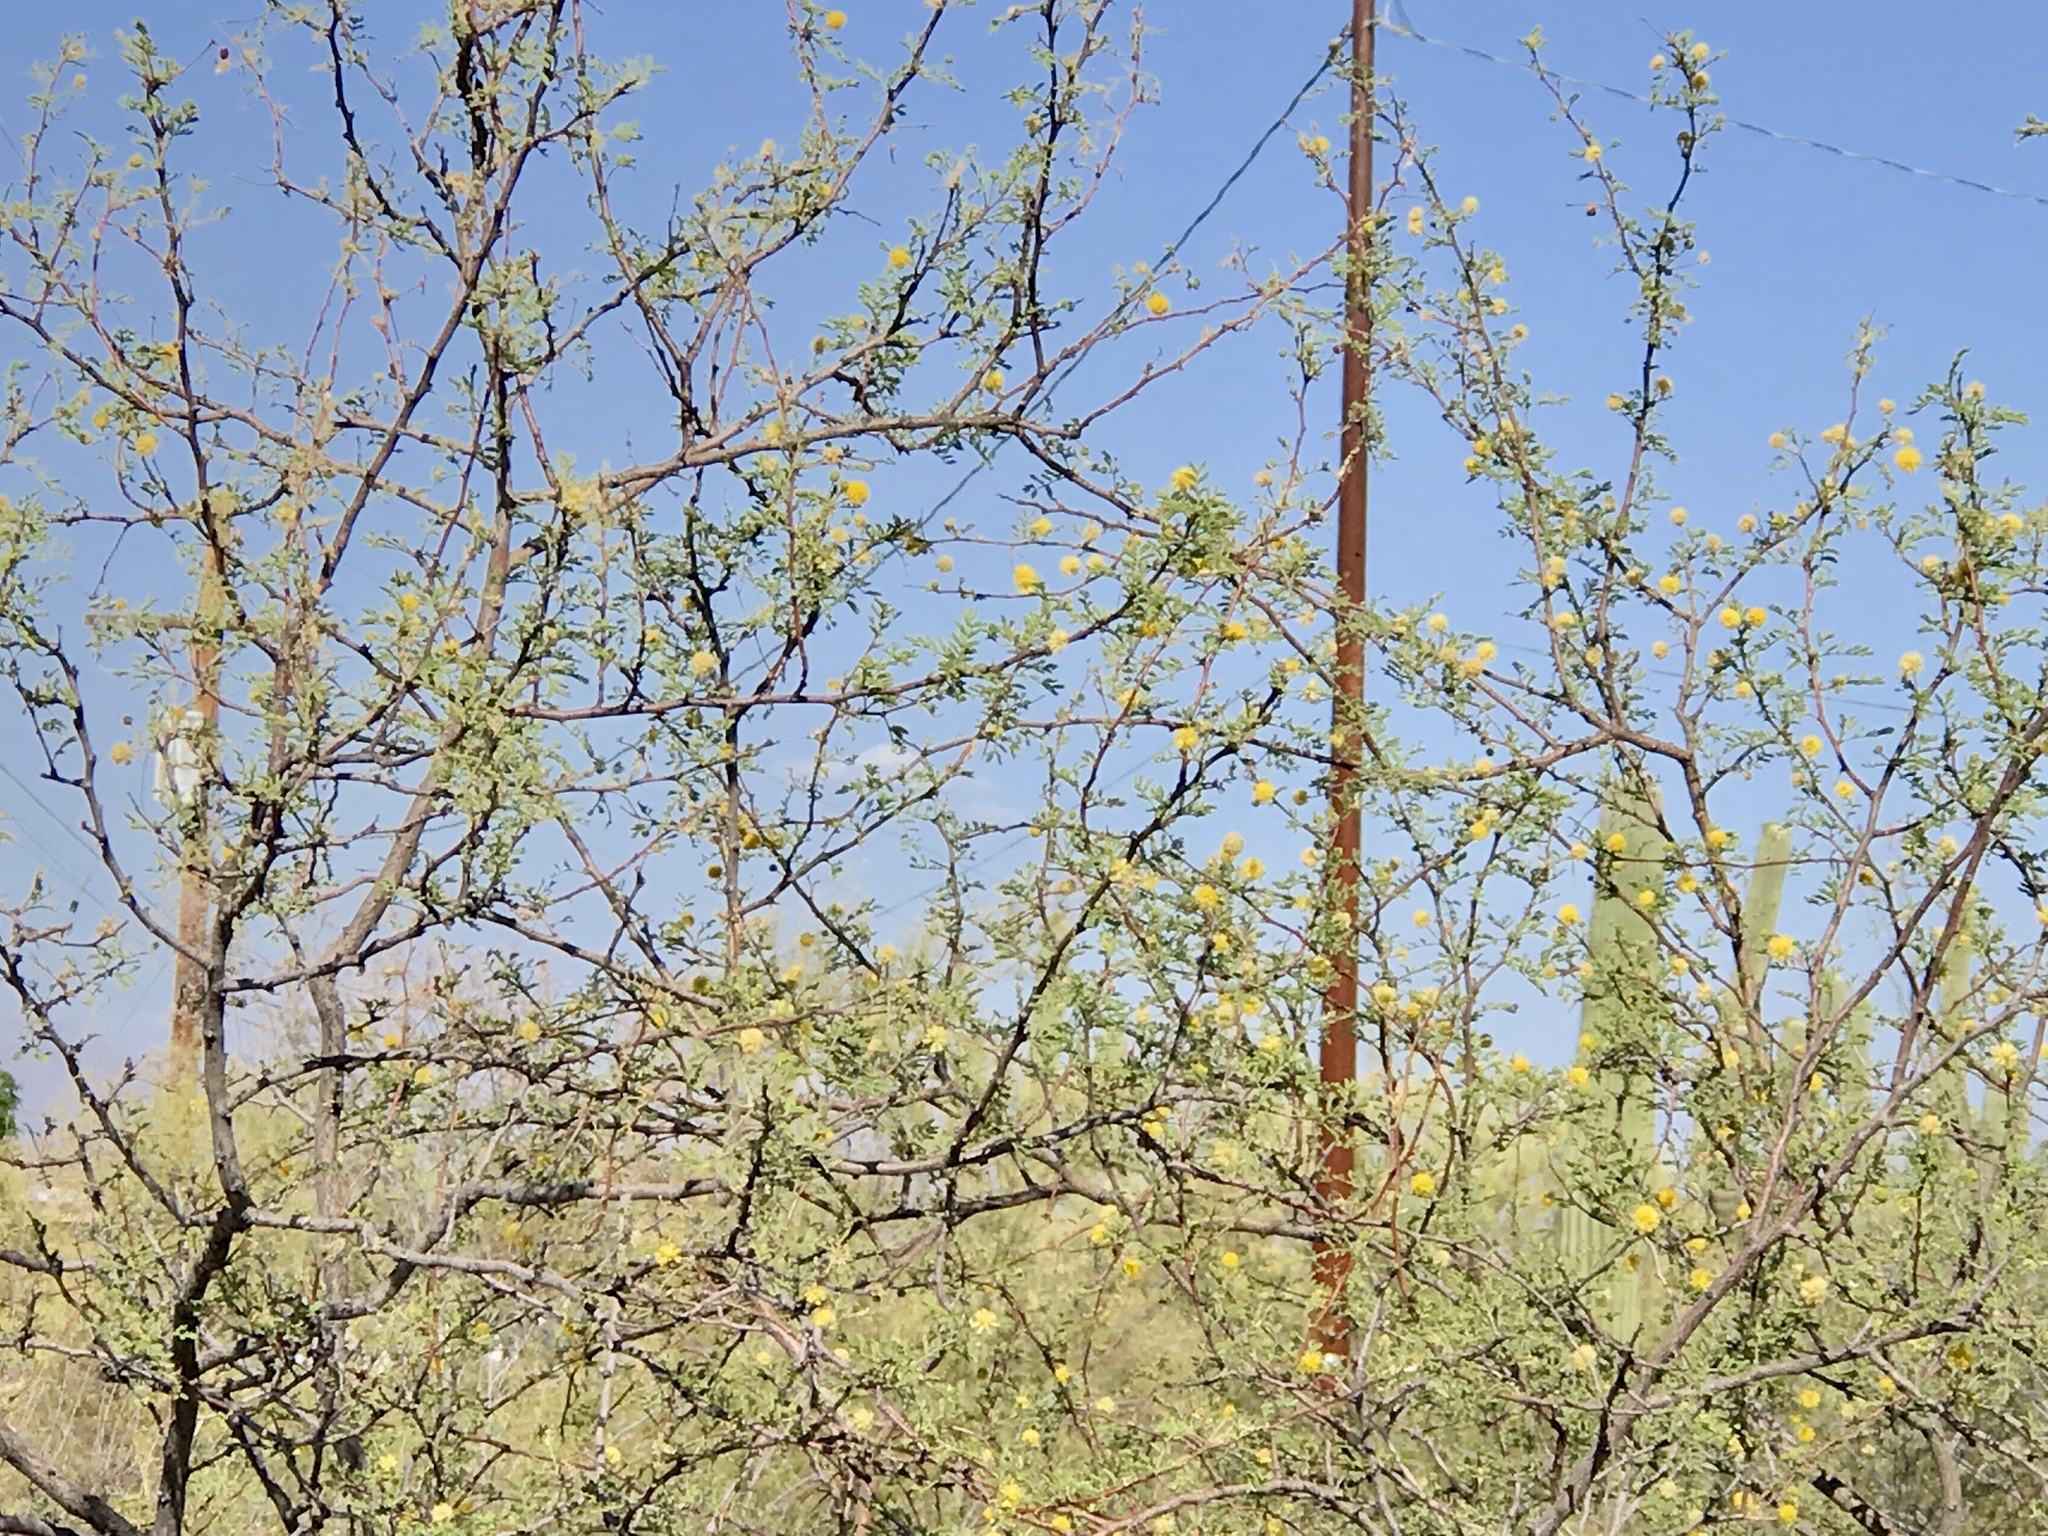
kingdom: Plantae
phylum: Tracheophyta
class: Magnoliopsida
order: Fabales
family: Fabaceae
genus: Vachellia
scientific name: Vachellia farnesiana
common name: Sweet acacia
